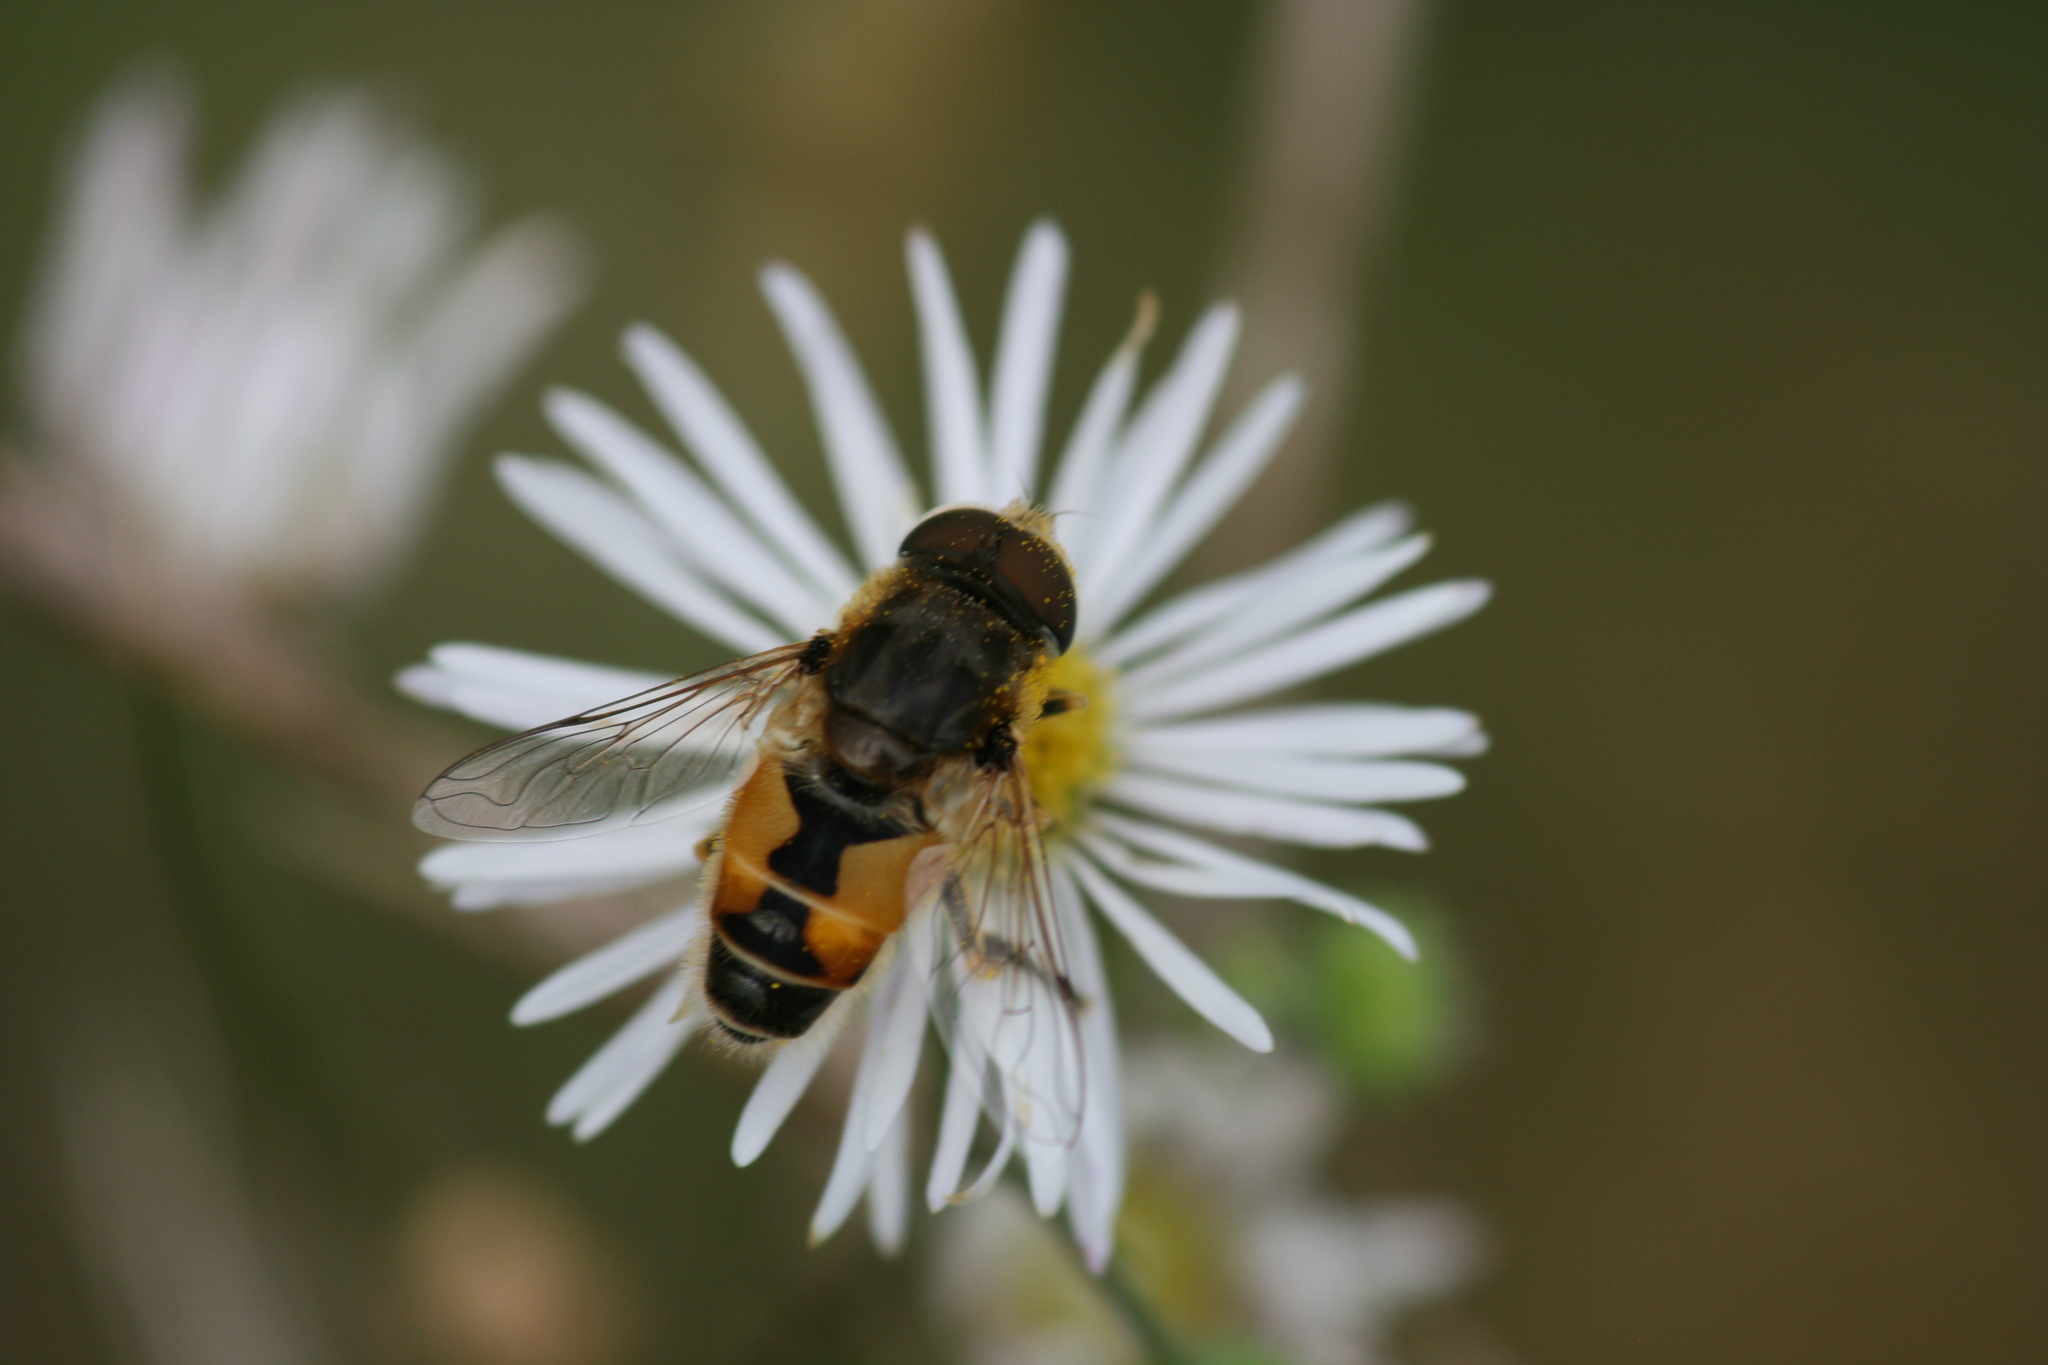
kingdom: Animalia
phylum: Arthropoda
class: Insecta
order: Diptera
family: Syrphidae
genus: Eristalis
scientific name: Eristalis arbustorum
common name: Hover fly
